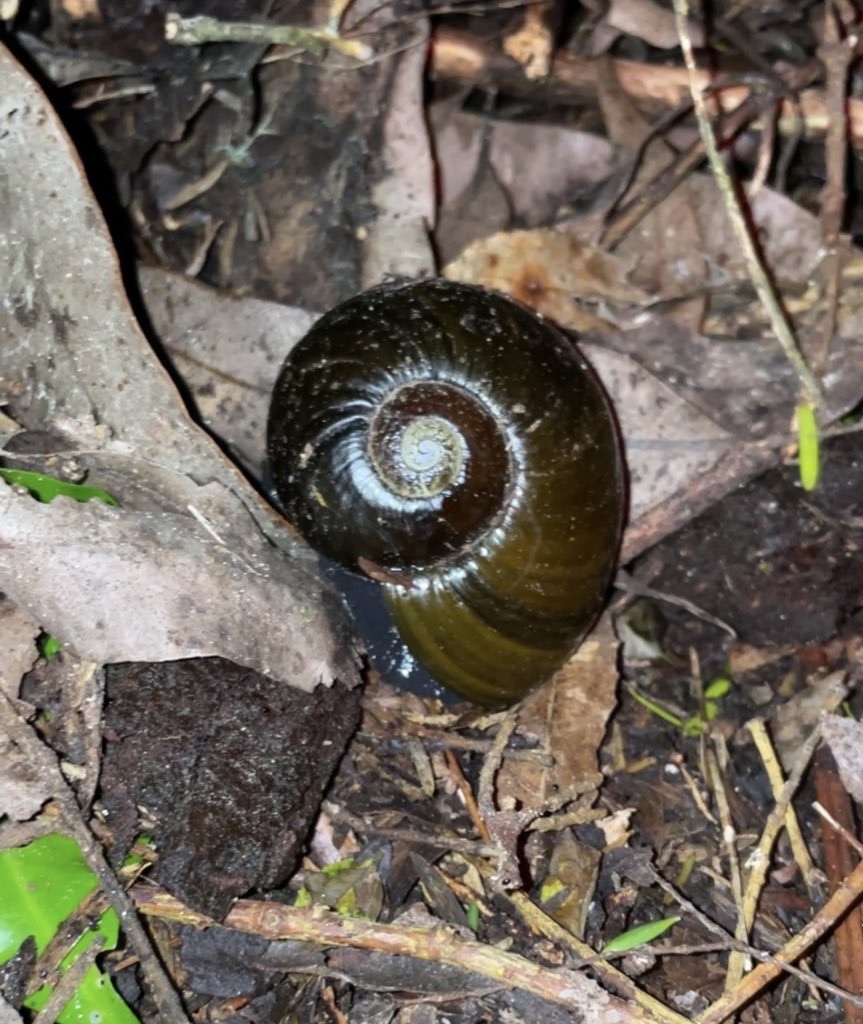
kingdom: Animalia
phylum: Mollusca
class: Gastropoda
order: Stylommatophora
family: Rhytididae
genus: Paryphanta
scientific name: Paryphanta busbyi
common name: Kauri snail
